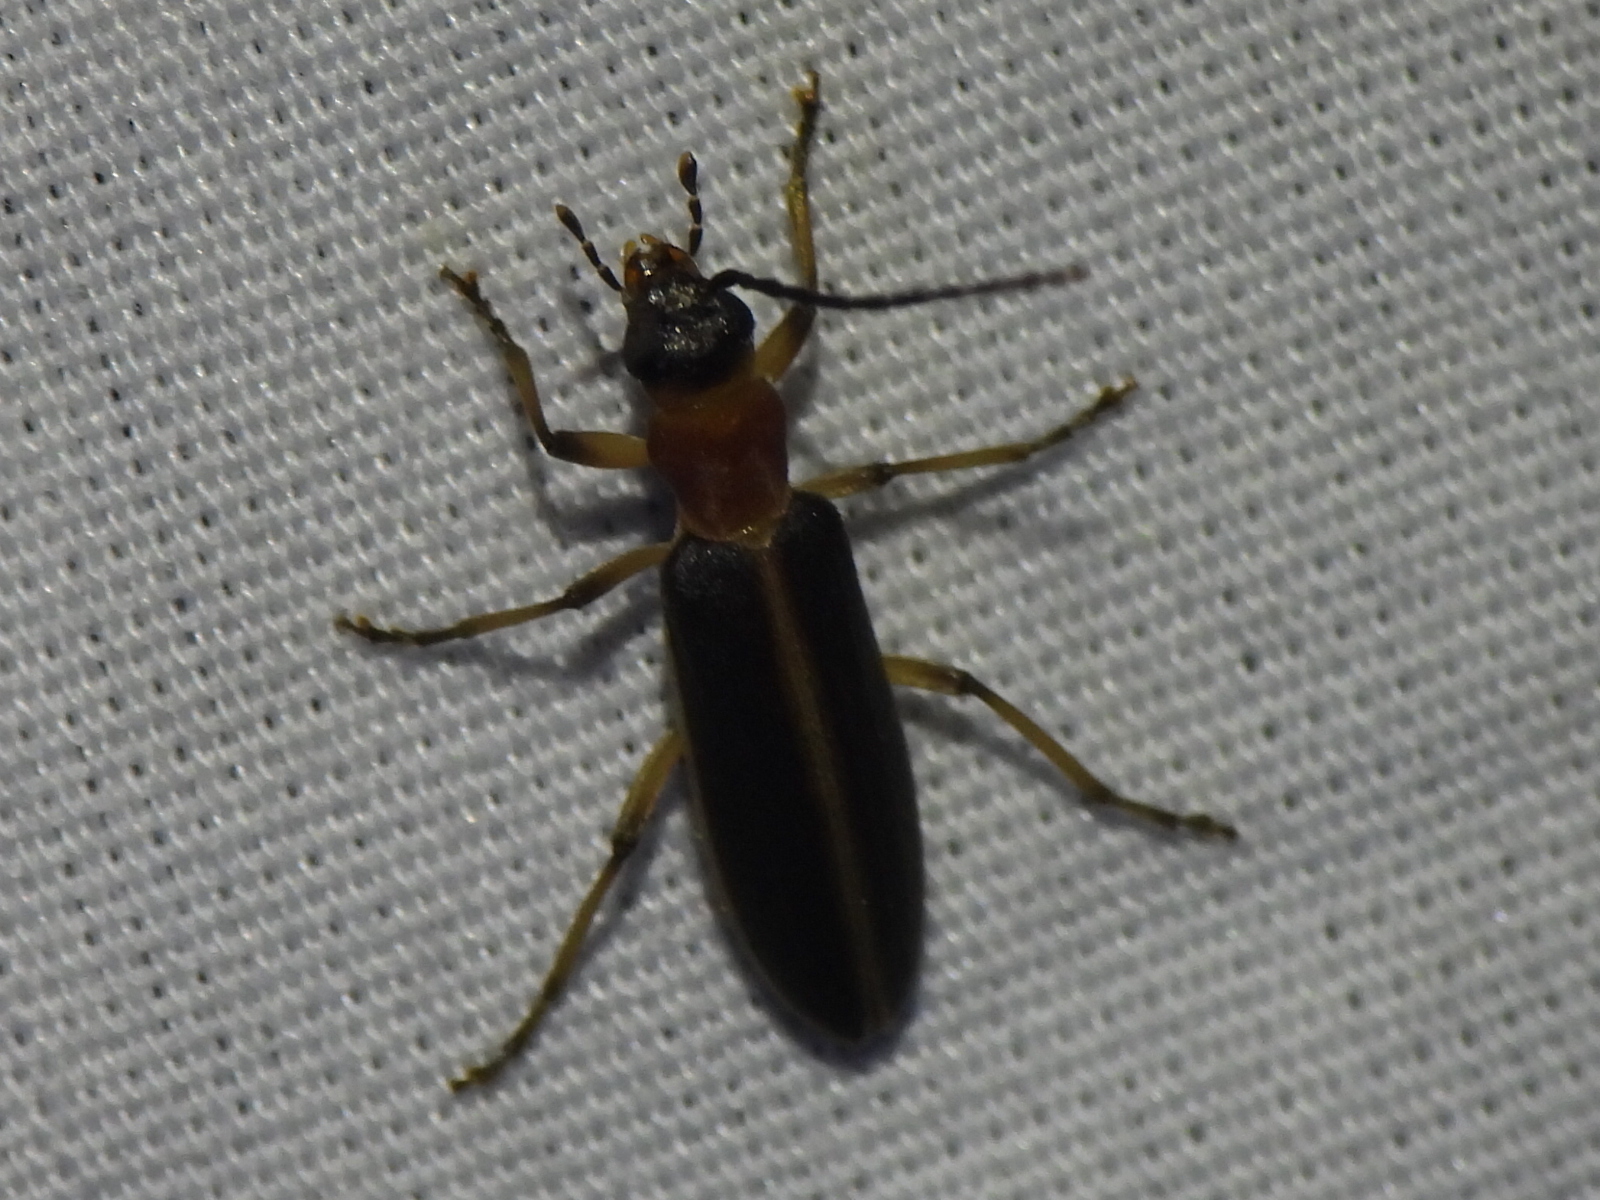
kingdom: Animalia
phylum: Arthropoda
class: Insecta
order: Coleoptera
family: Oedemeridae
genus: Oxycopis
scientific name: Oxycopis mimetica
